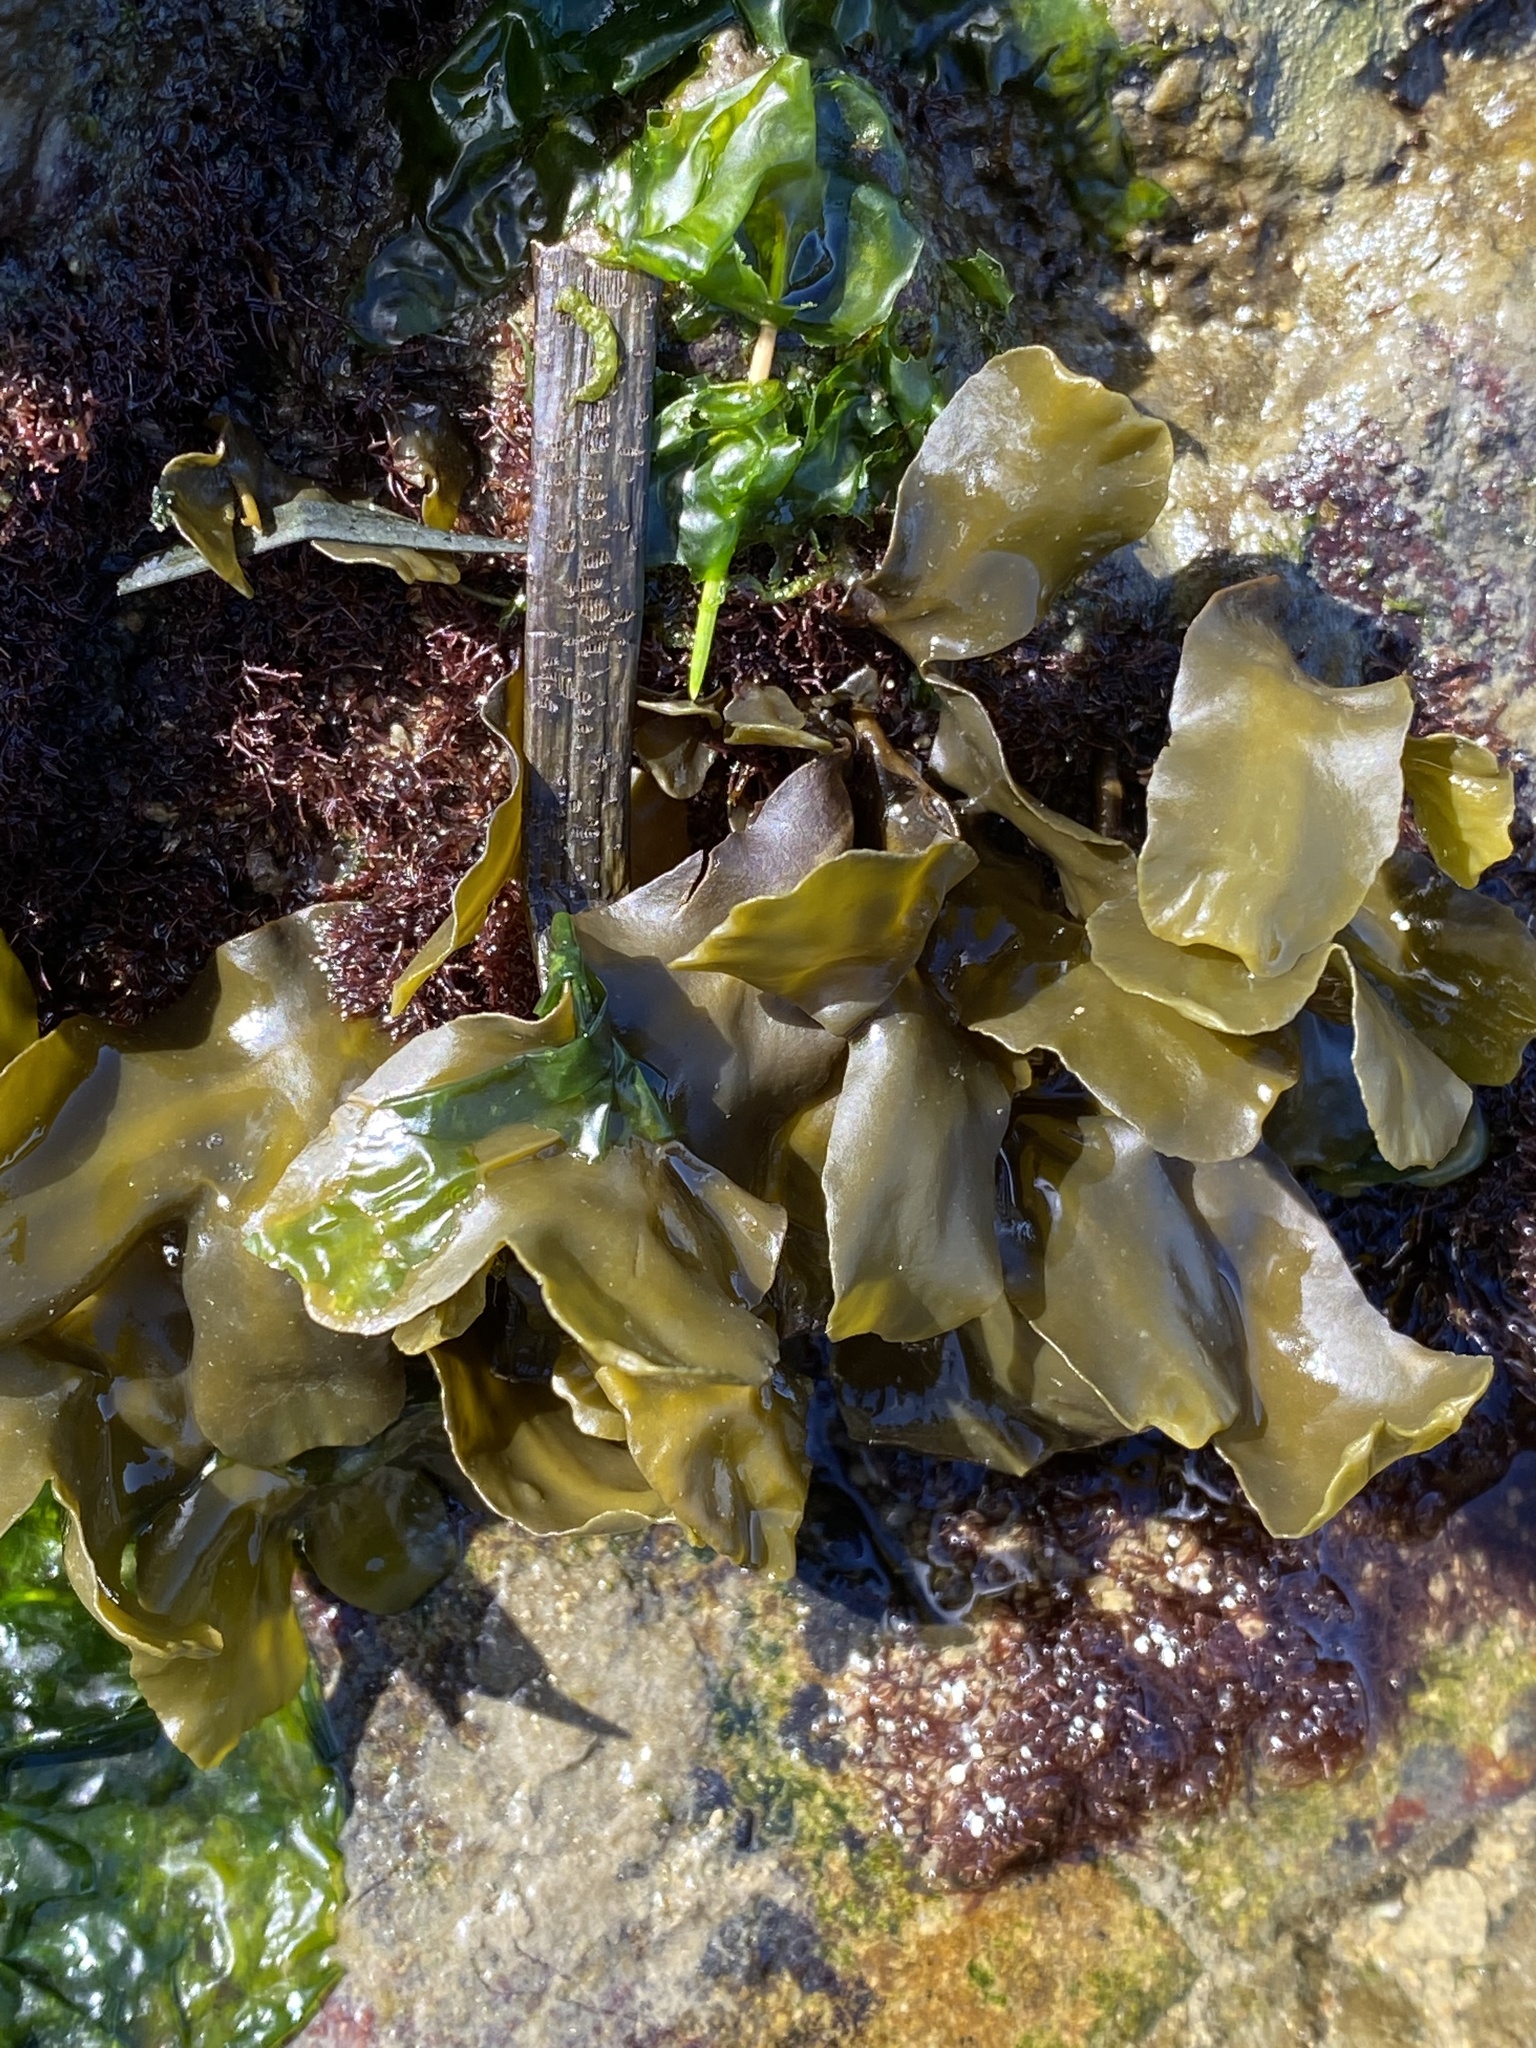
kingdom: Chromista
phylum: Ochrophyta
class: Phaeophyceae
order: Fucales
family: Fucaceae
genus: Fucus
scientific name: Fucus distichus
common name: Rockweed
